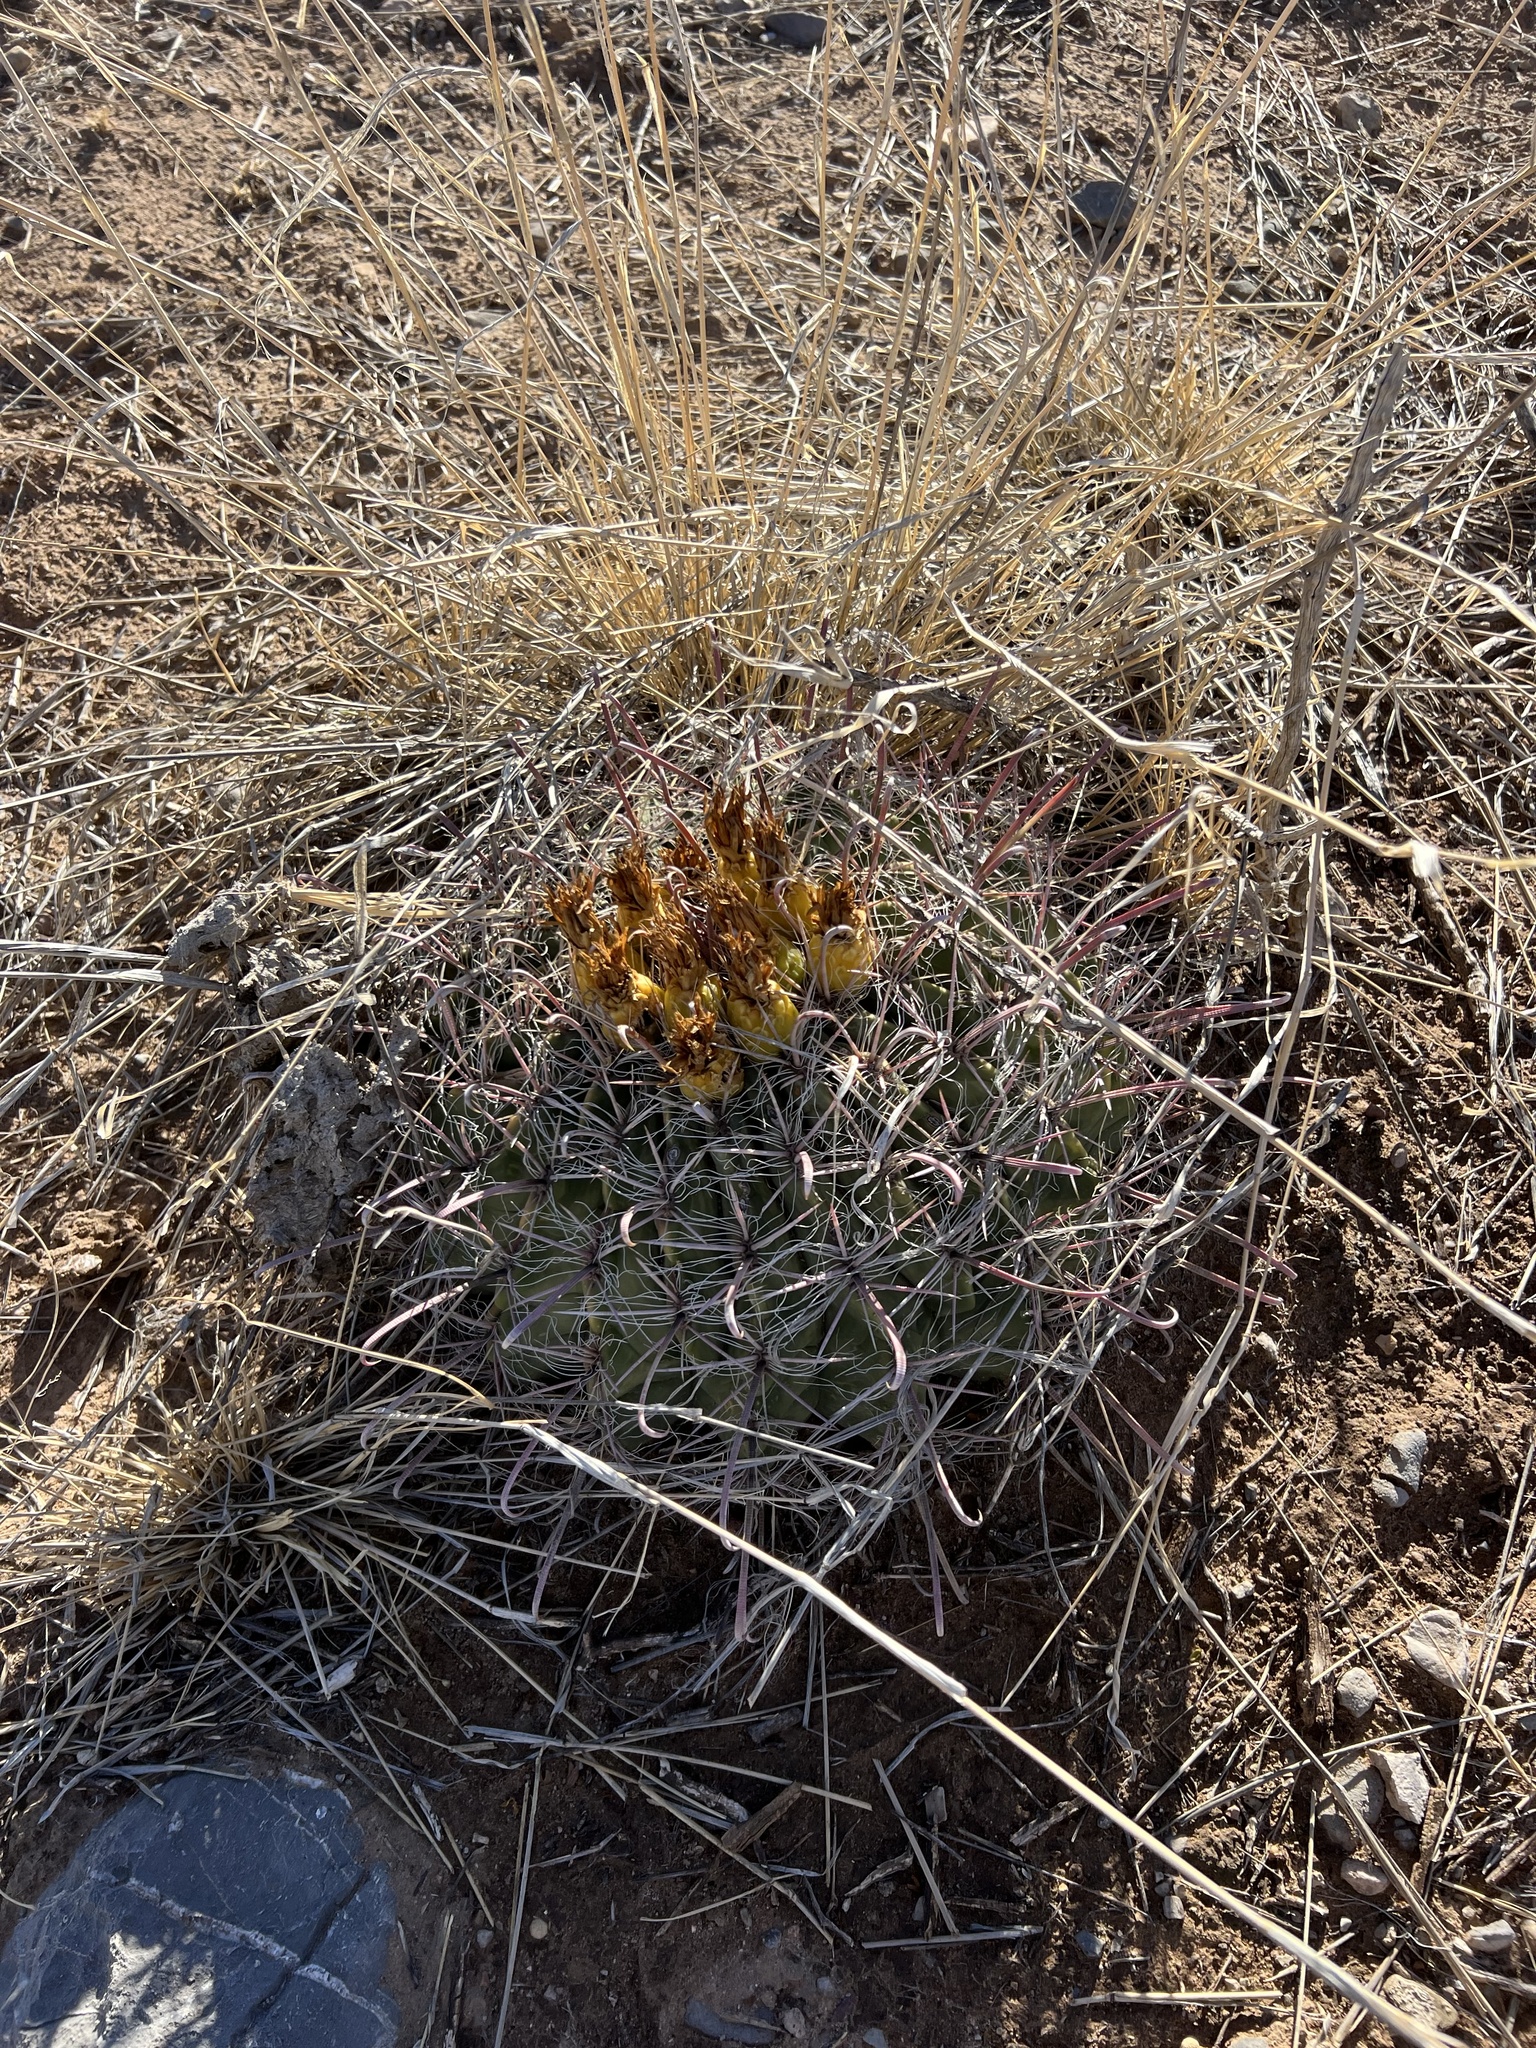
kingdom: Plantae
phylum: Tracheophyta
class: Magnoliopsida
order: Caryophyllales
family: Cactaceae
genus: Ferocactus
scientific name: Ferocactus wislizeni
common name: Candy barrel cactus
